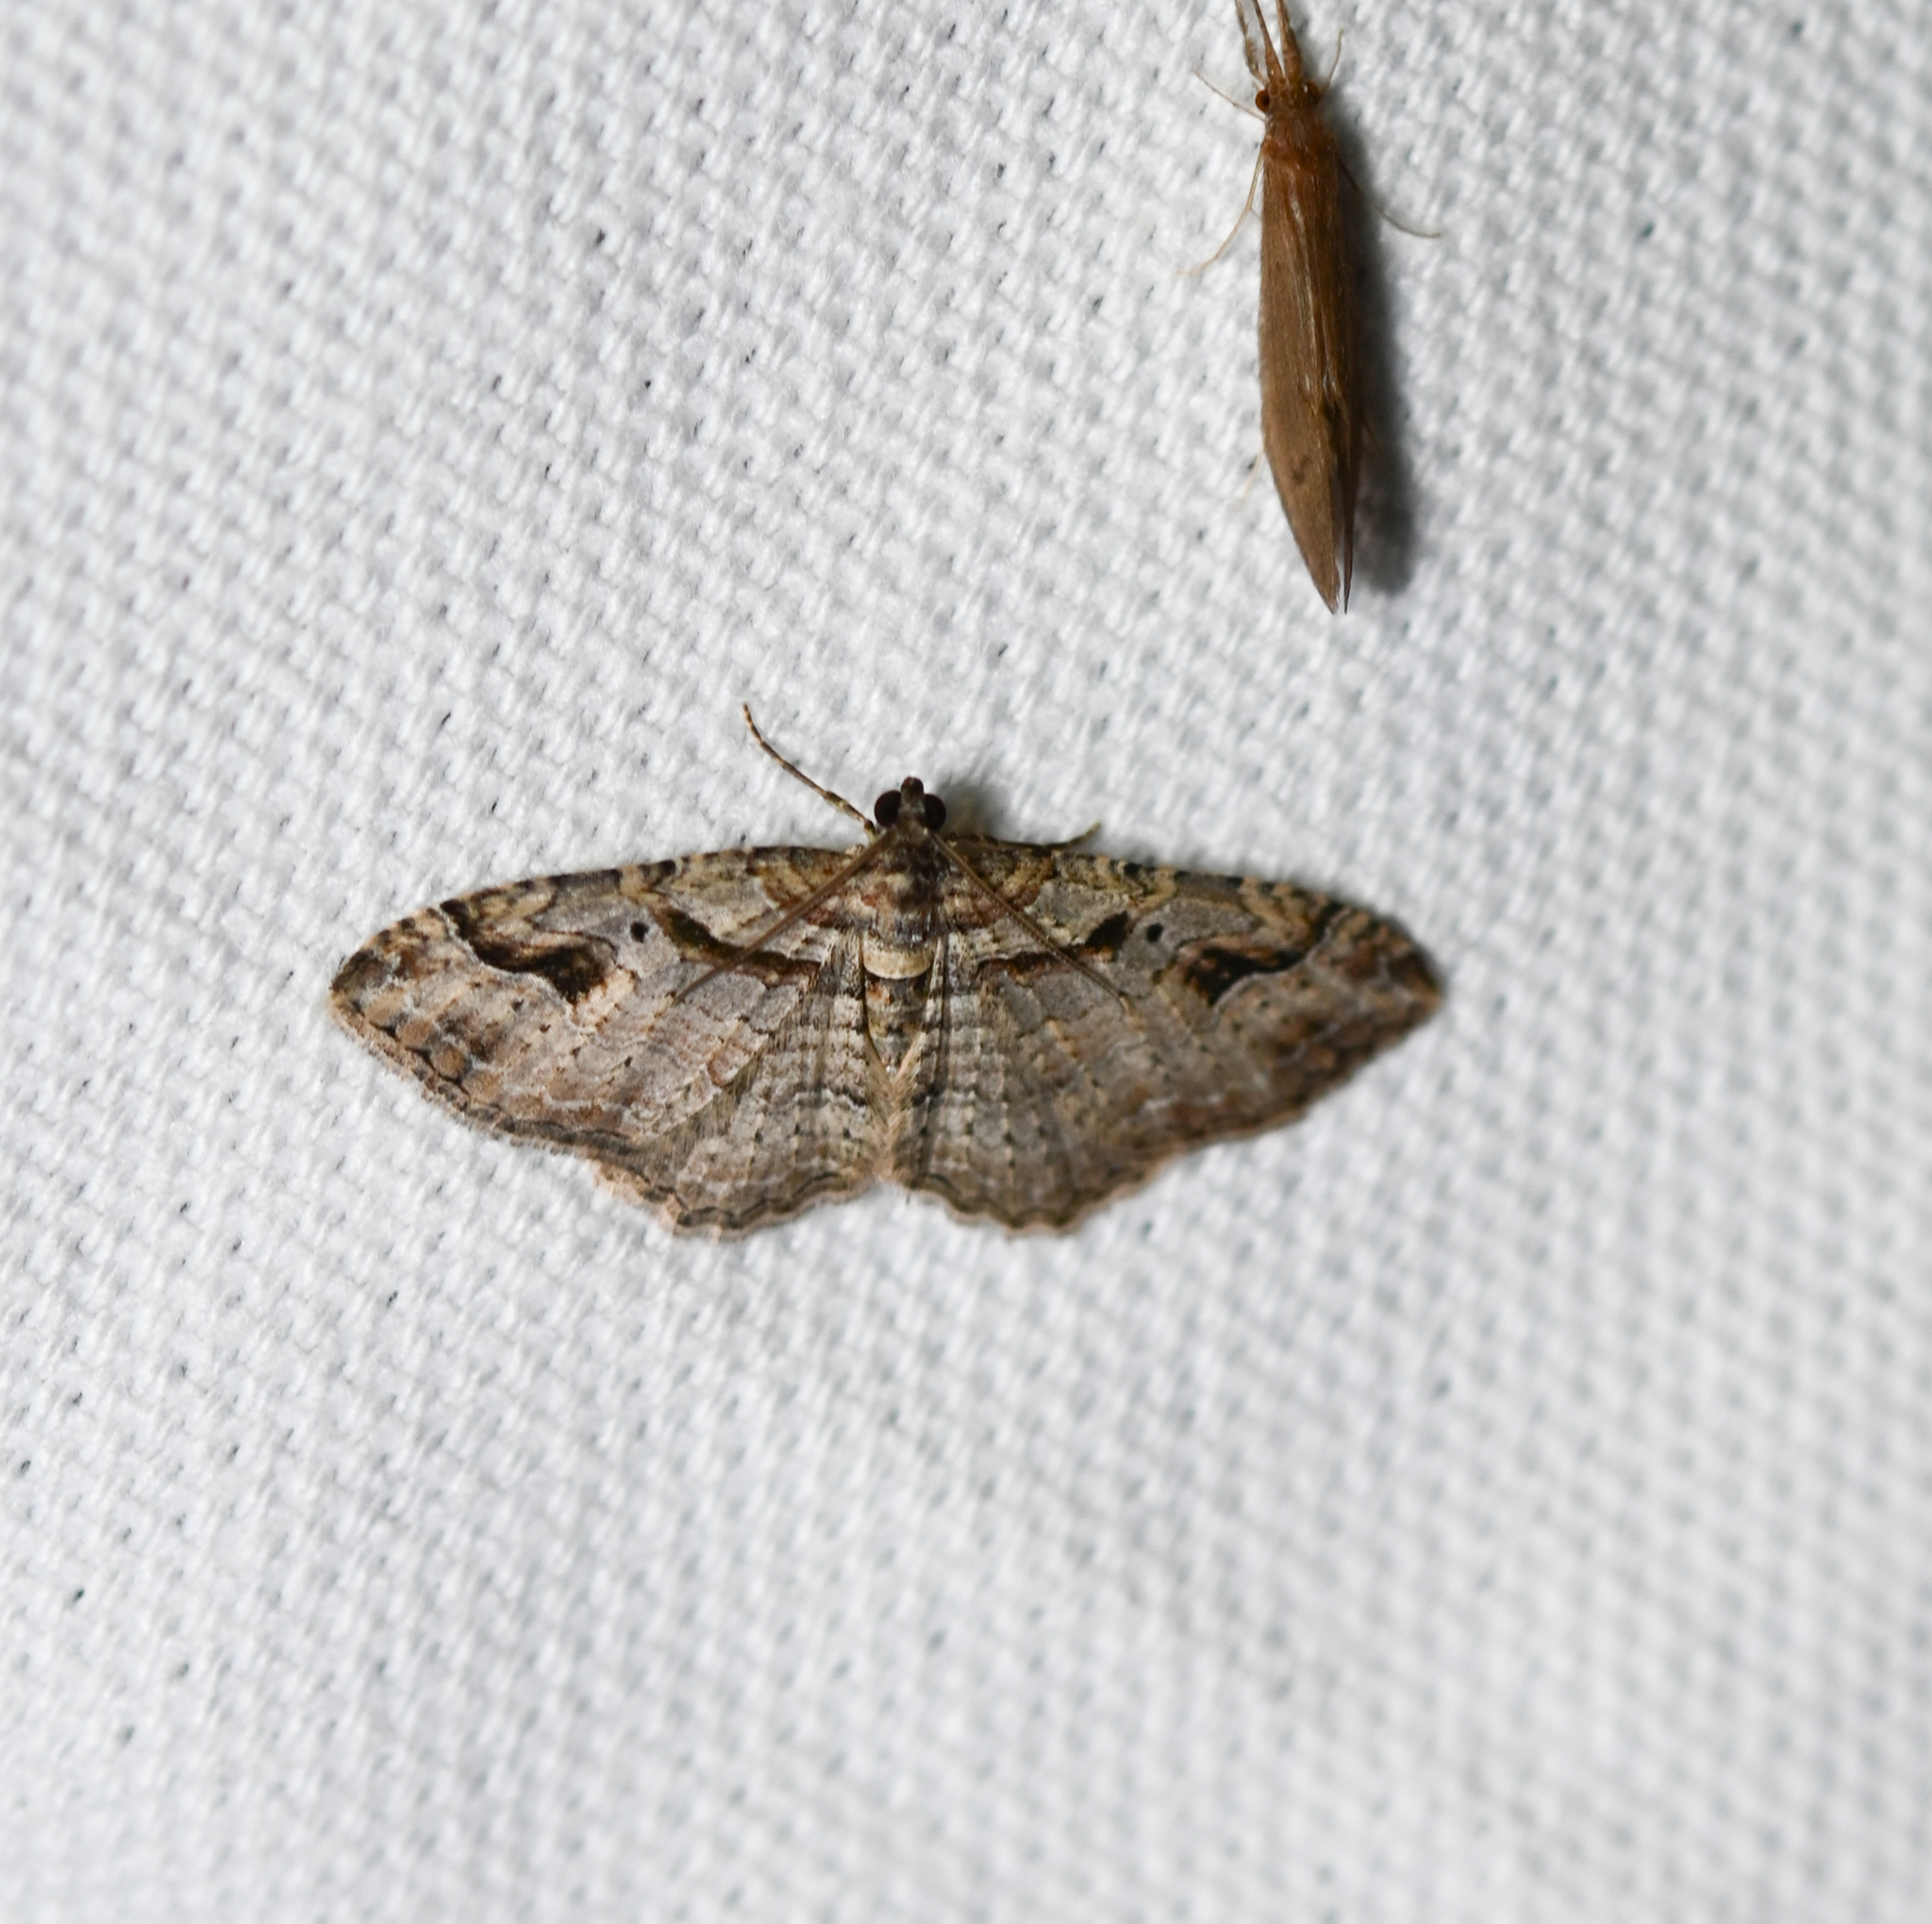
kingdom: Animalia
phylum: Arthropoda
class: Insecta
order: Lepidoptera
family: Geometridae
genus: Costaconvexa
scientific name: Costaconvexa centrostrigaria
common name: Bent-line carpet
